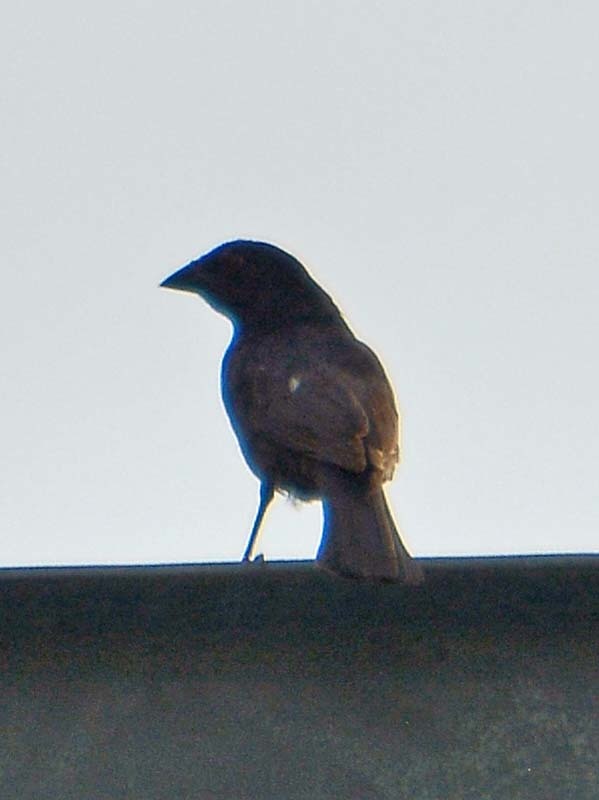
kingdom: Animalia
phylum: Chordata
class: Aves
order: Passeriformes
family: Icteridae
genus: Molothrus
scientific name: Molothrus aeneus
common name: Bronzed cowbird
